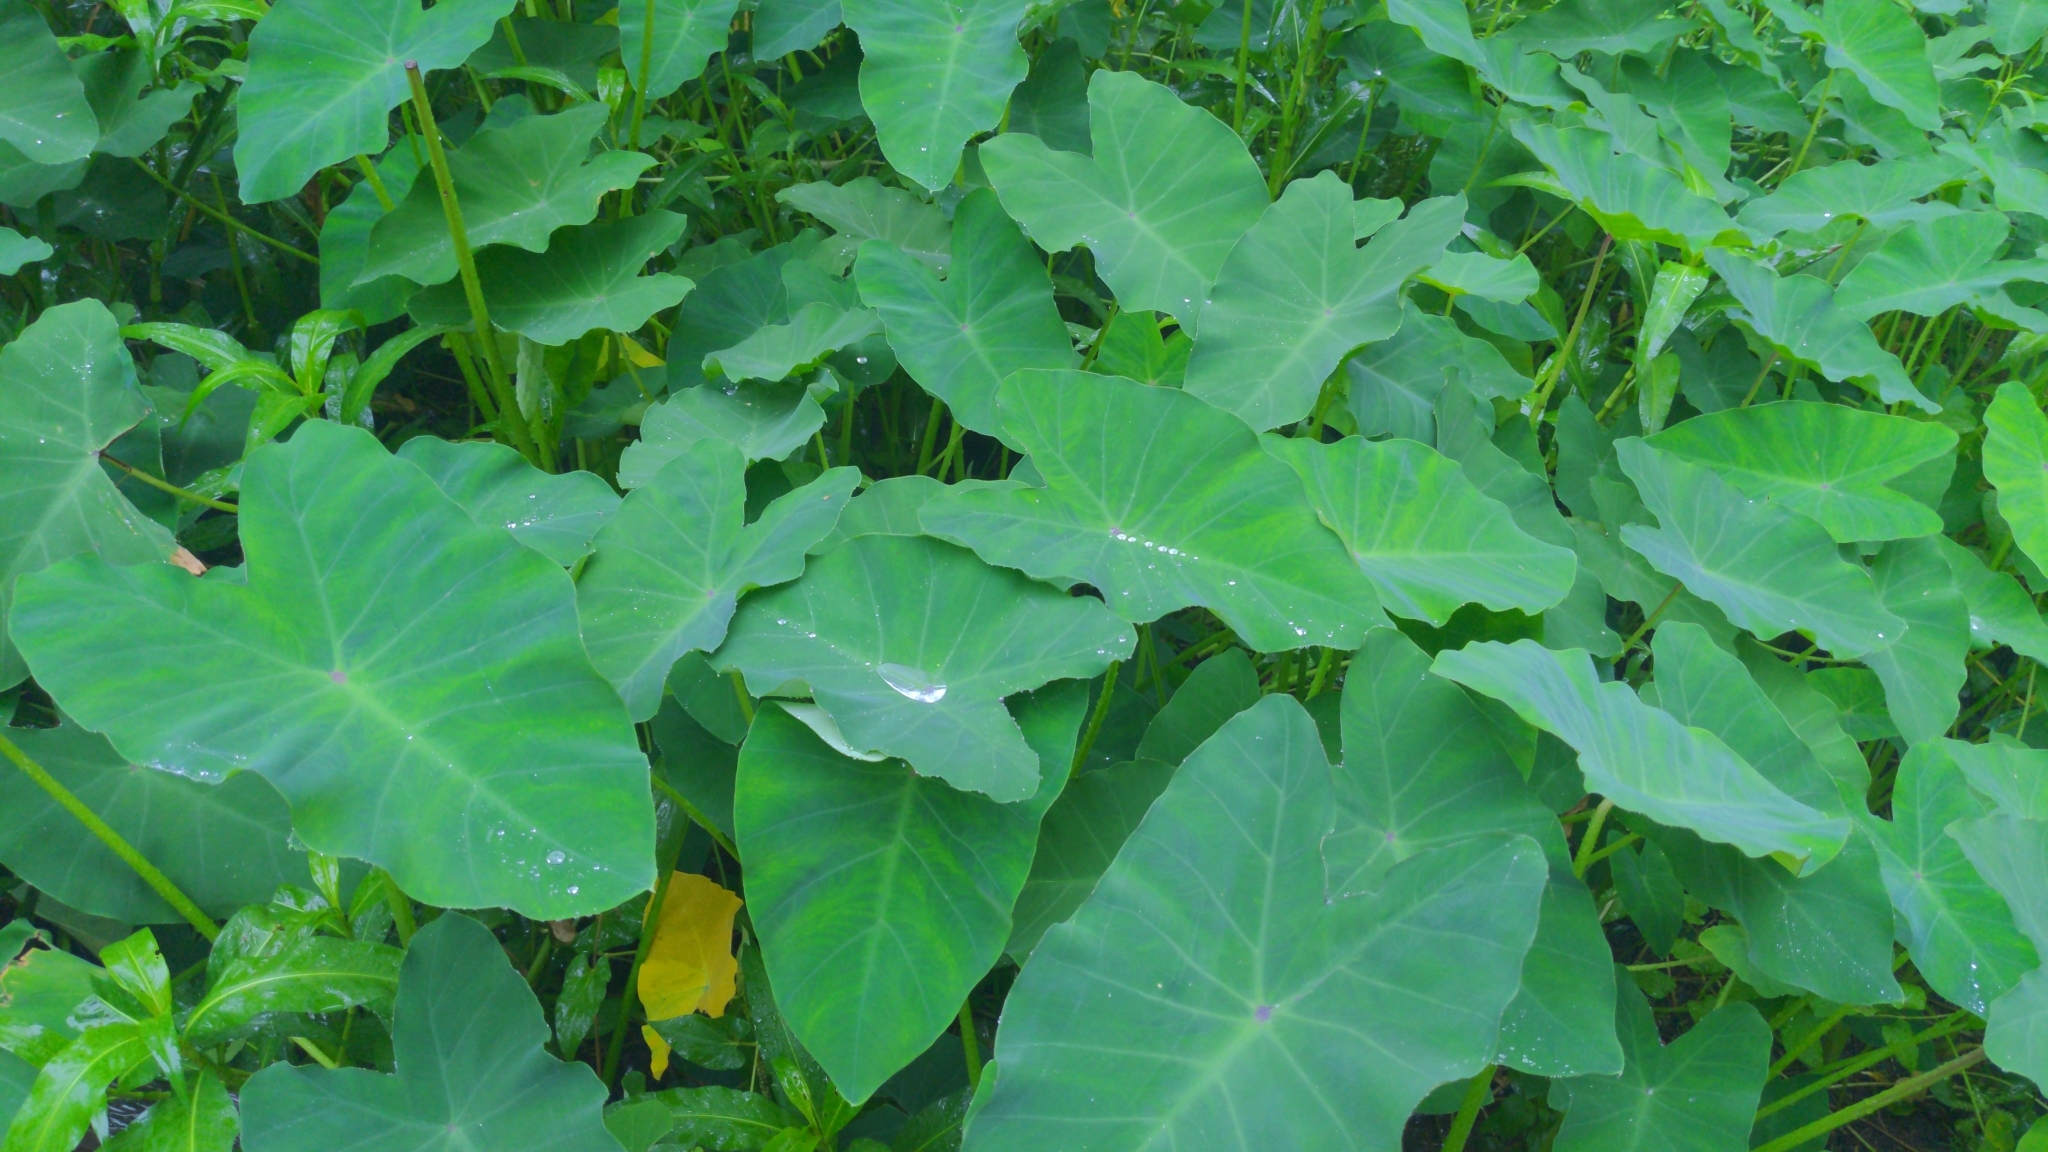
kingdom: Plantae
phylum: Tracheophyta
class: Liliopsida
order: Alismatales
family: Araceae
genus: Colocasia
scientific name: Colocasia esculenta
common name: Taro
